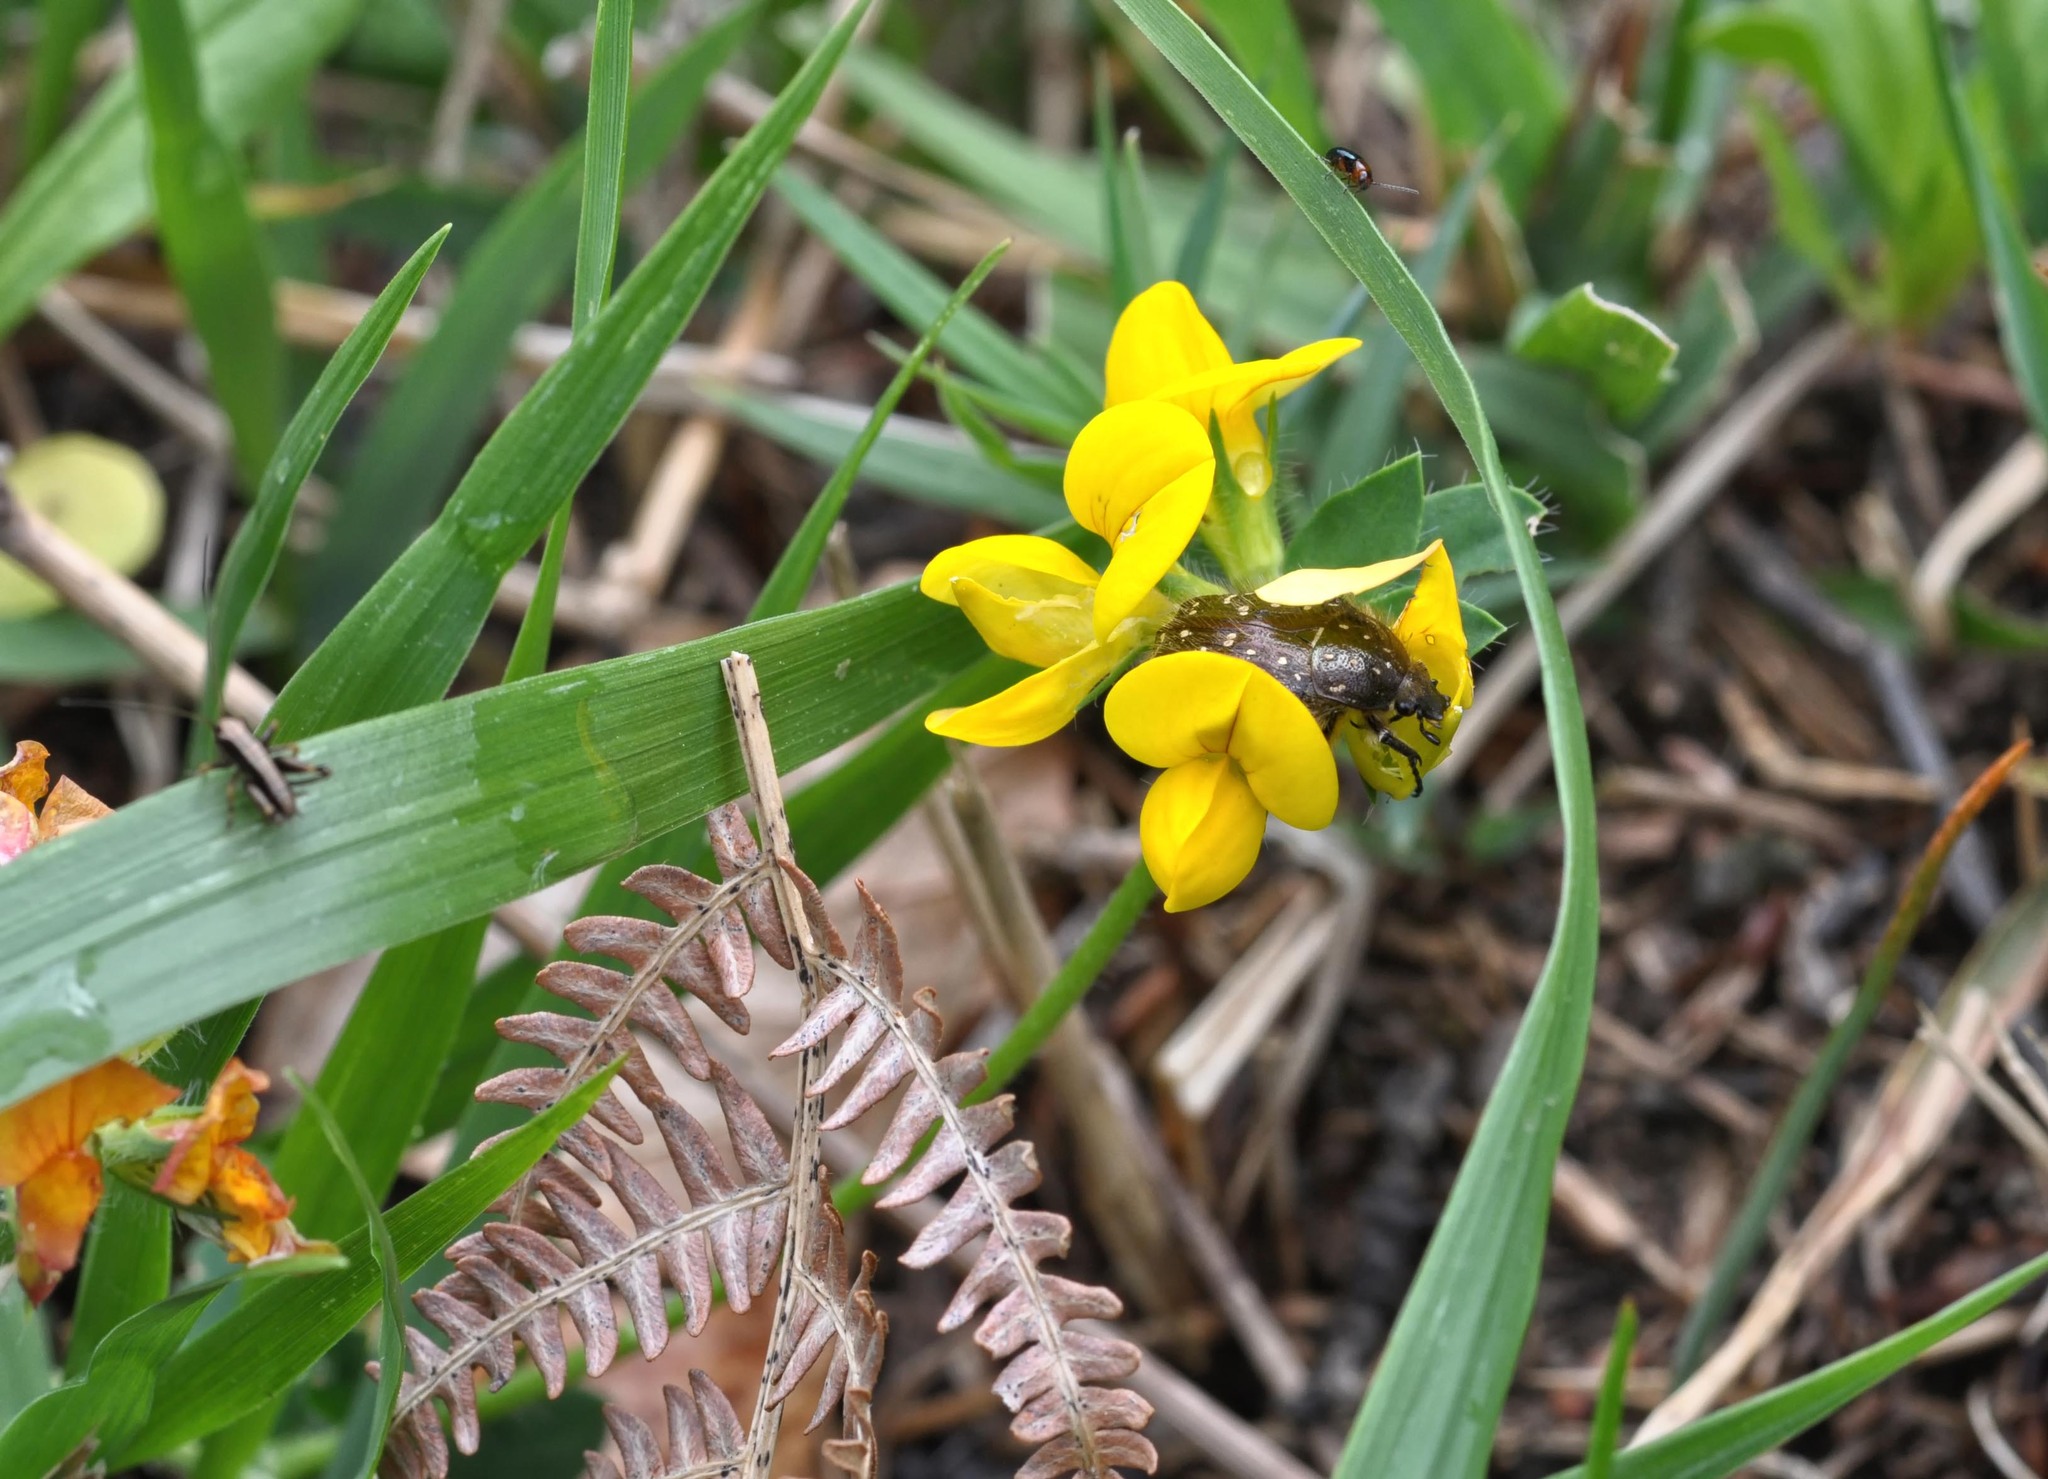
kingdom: Animalia
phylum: Arthropoda
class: Insecta
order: Coleoptera
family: Scarabaeidae
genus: Oxythyrea
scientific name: Oxythyrea funesta
